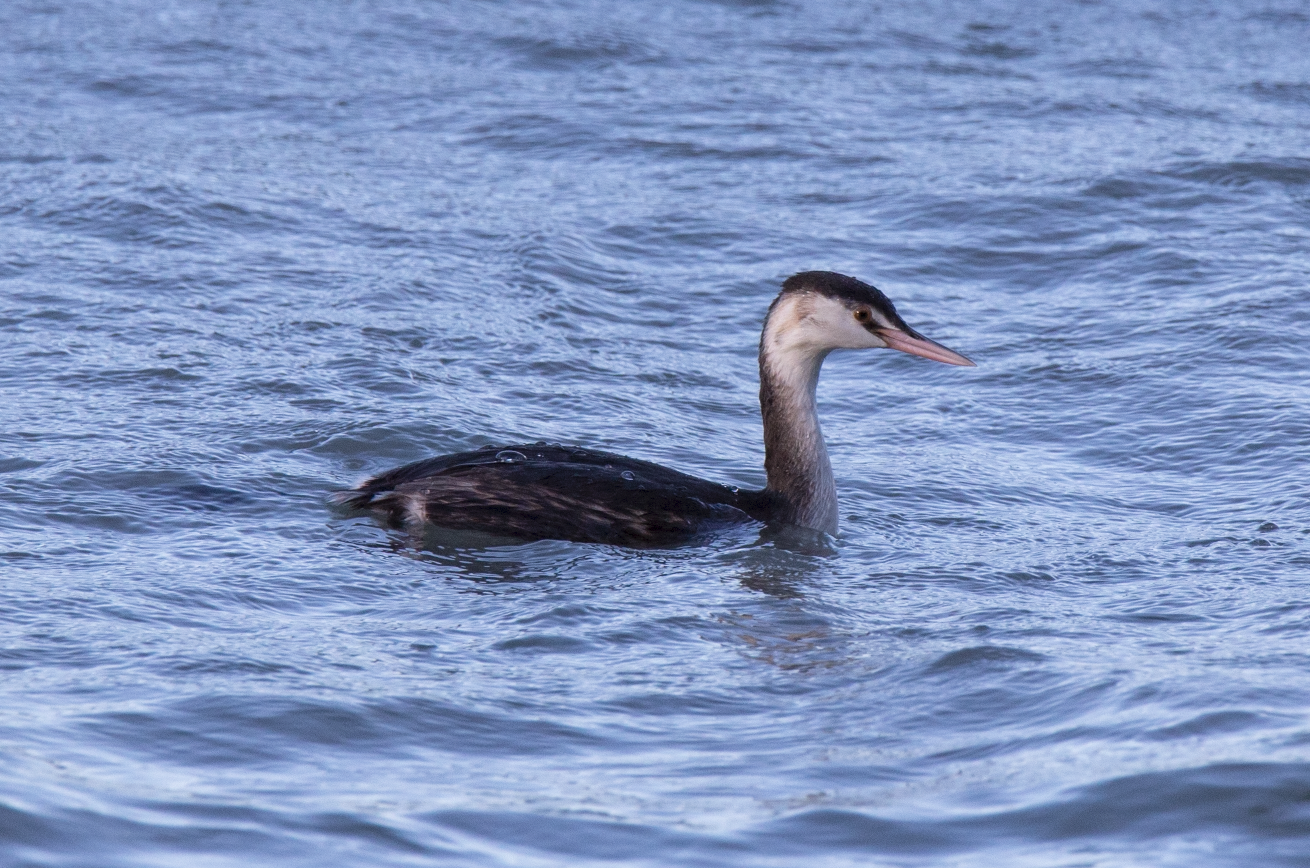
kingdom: Animalia
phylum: Chordata
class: Aves
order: Podicipediformes
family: Podicipedidae
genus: Podiceps
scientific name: Podiceps cristatus
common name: Great crested grebe
